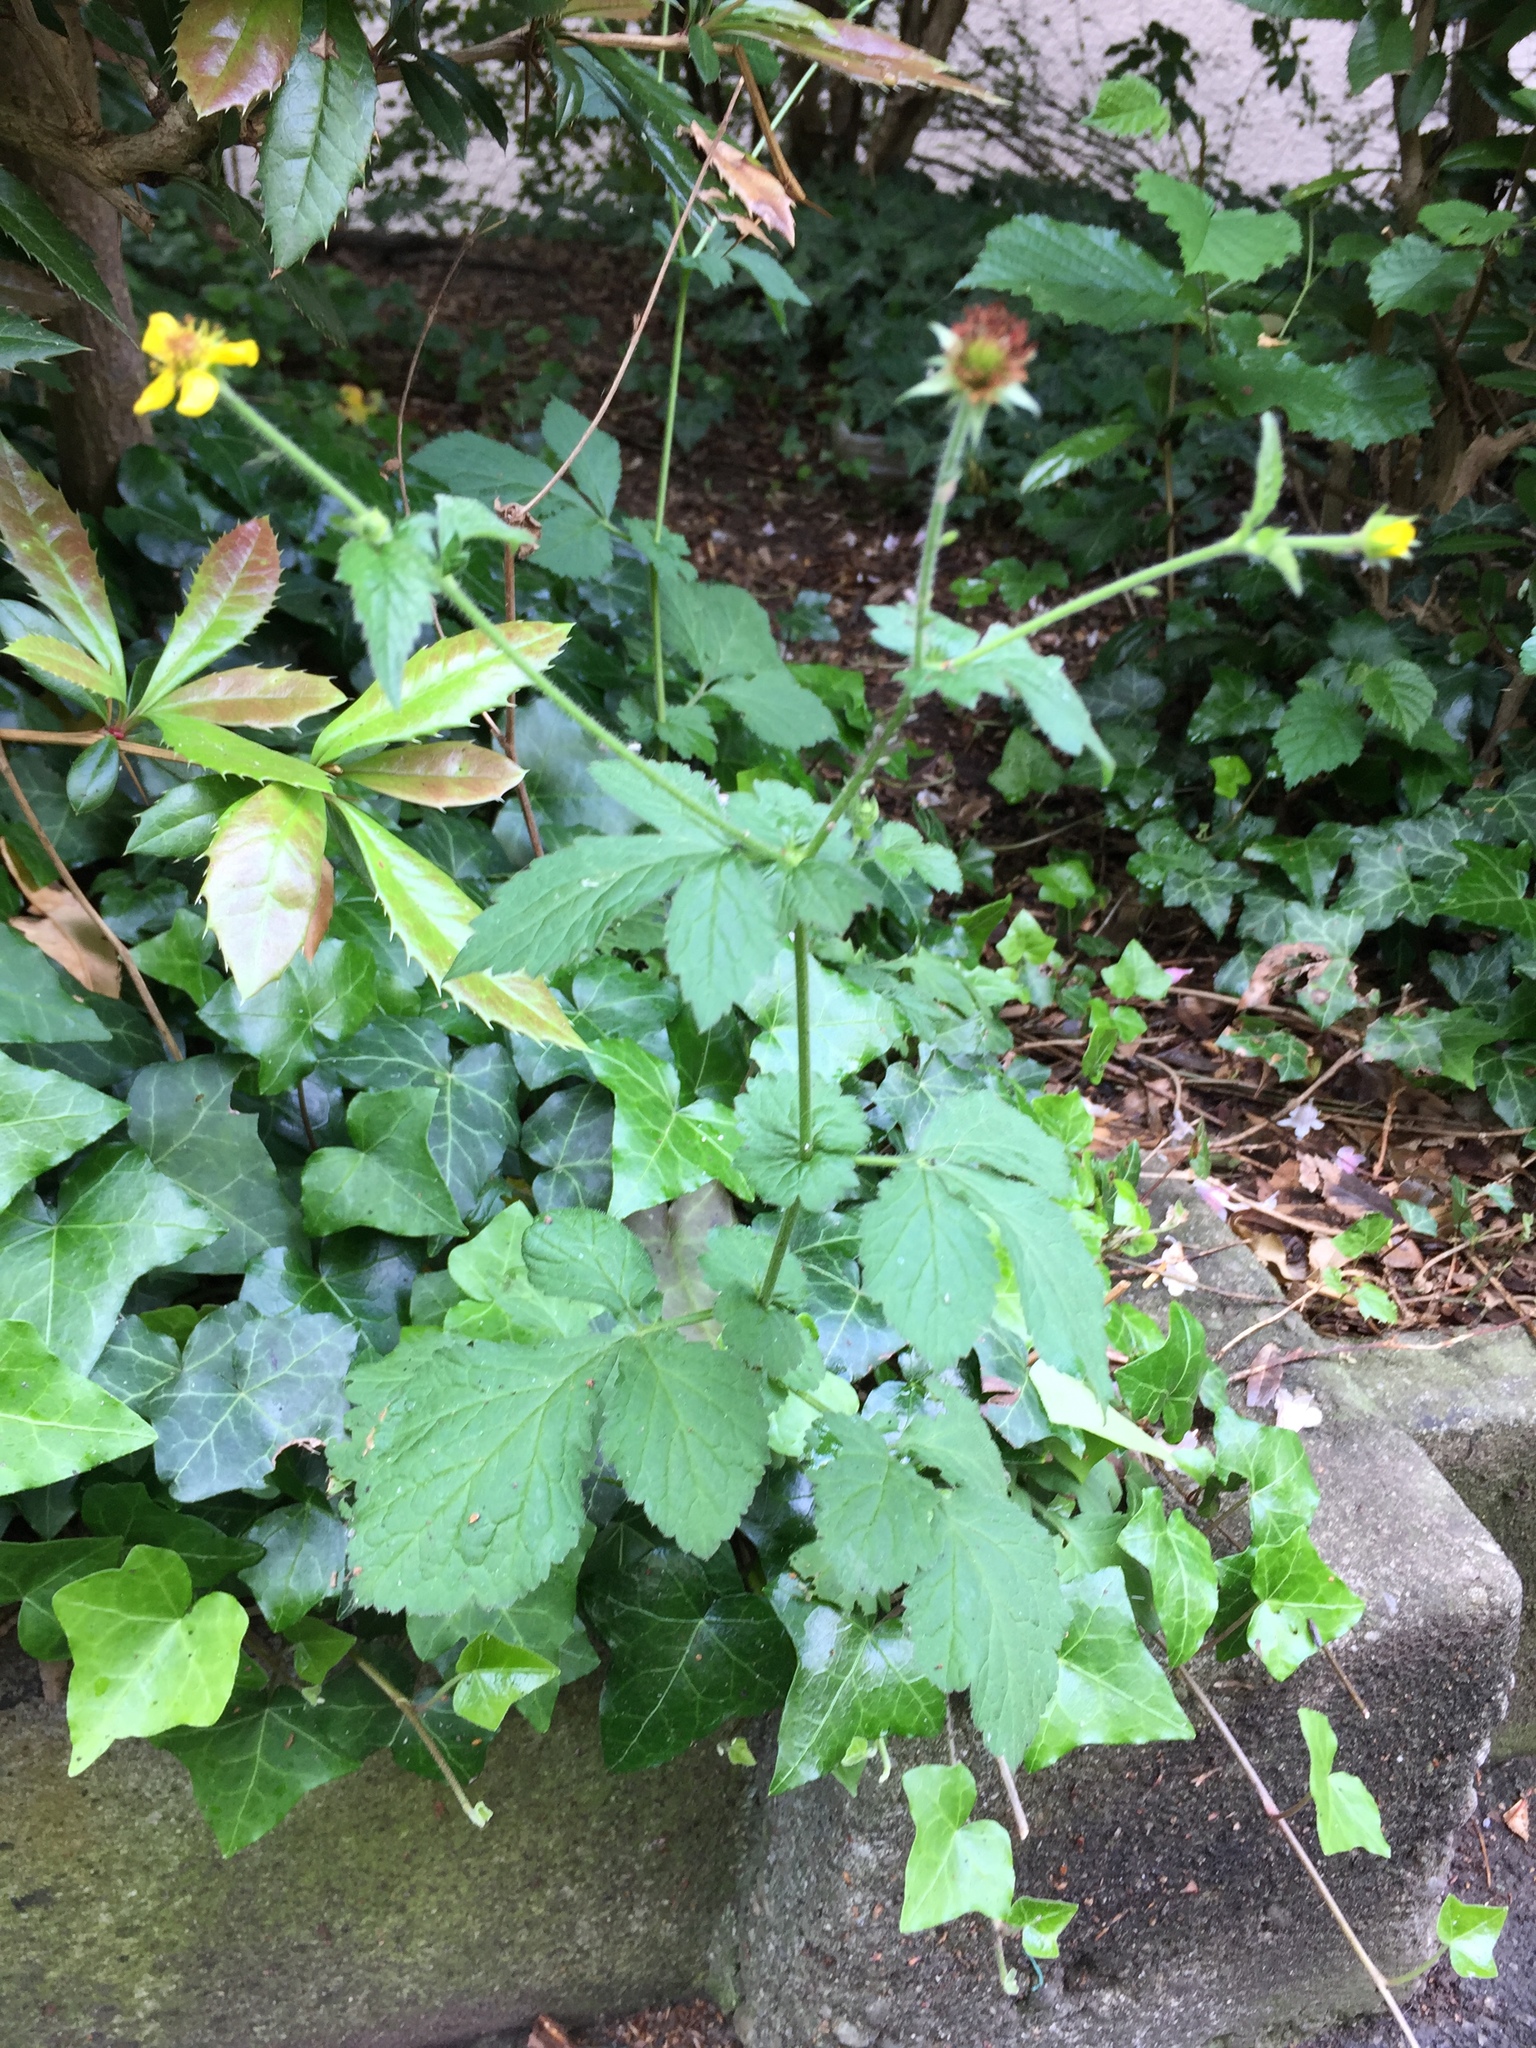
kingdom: Plantae
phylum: Tracheophyta
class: Magnoliopsida
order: Rosales
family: Rosaceae
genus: Geum
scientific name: Geum urbanum
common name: Wood avens
